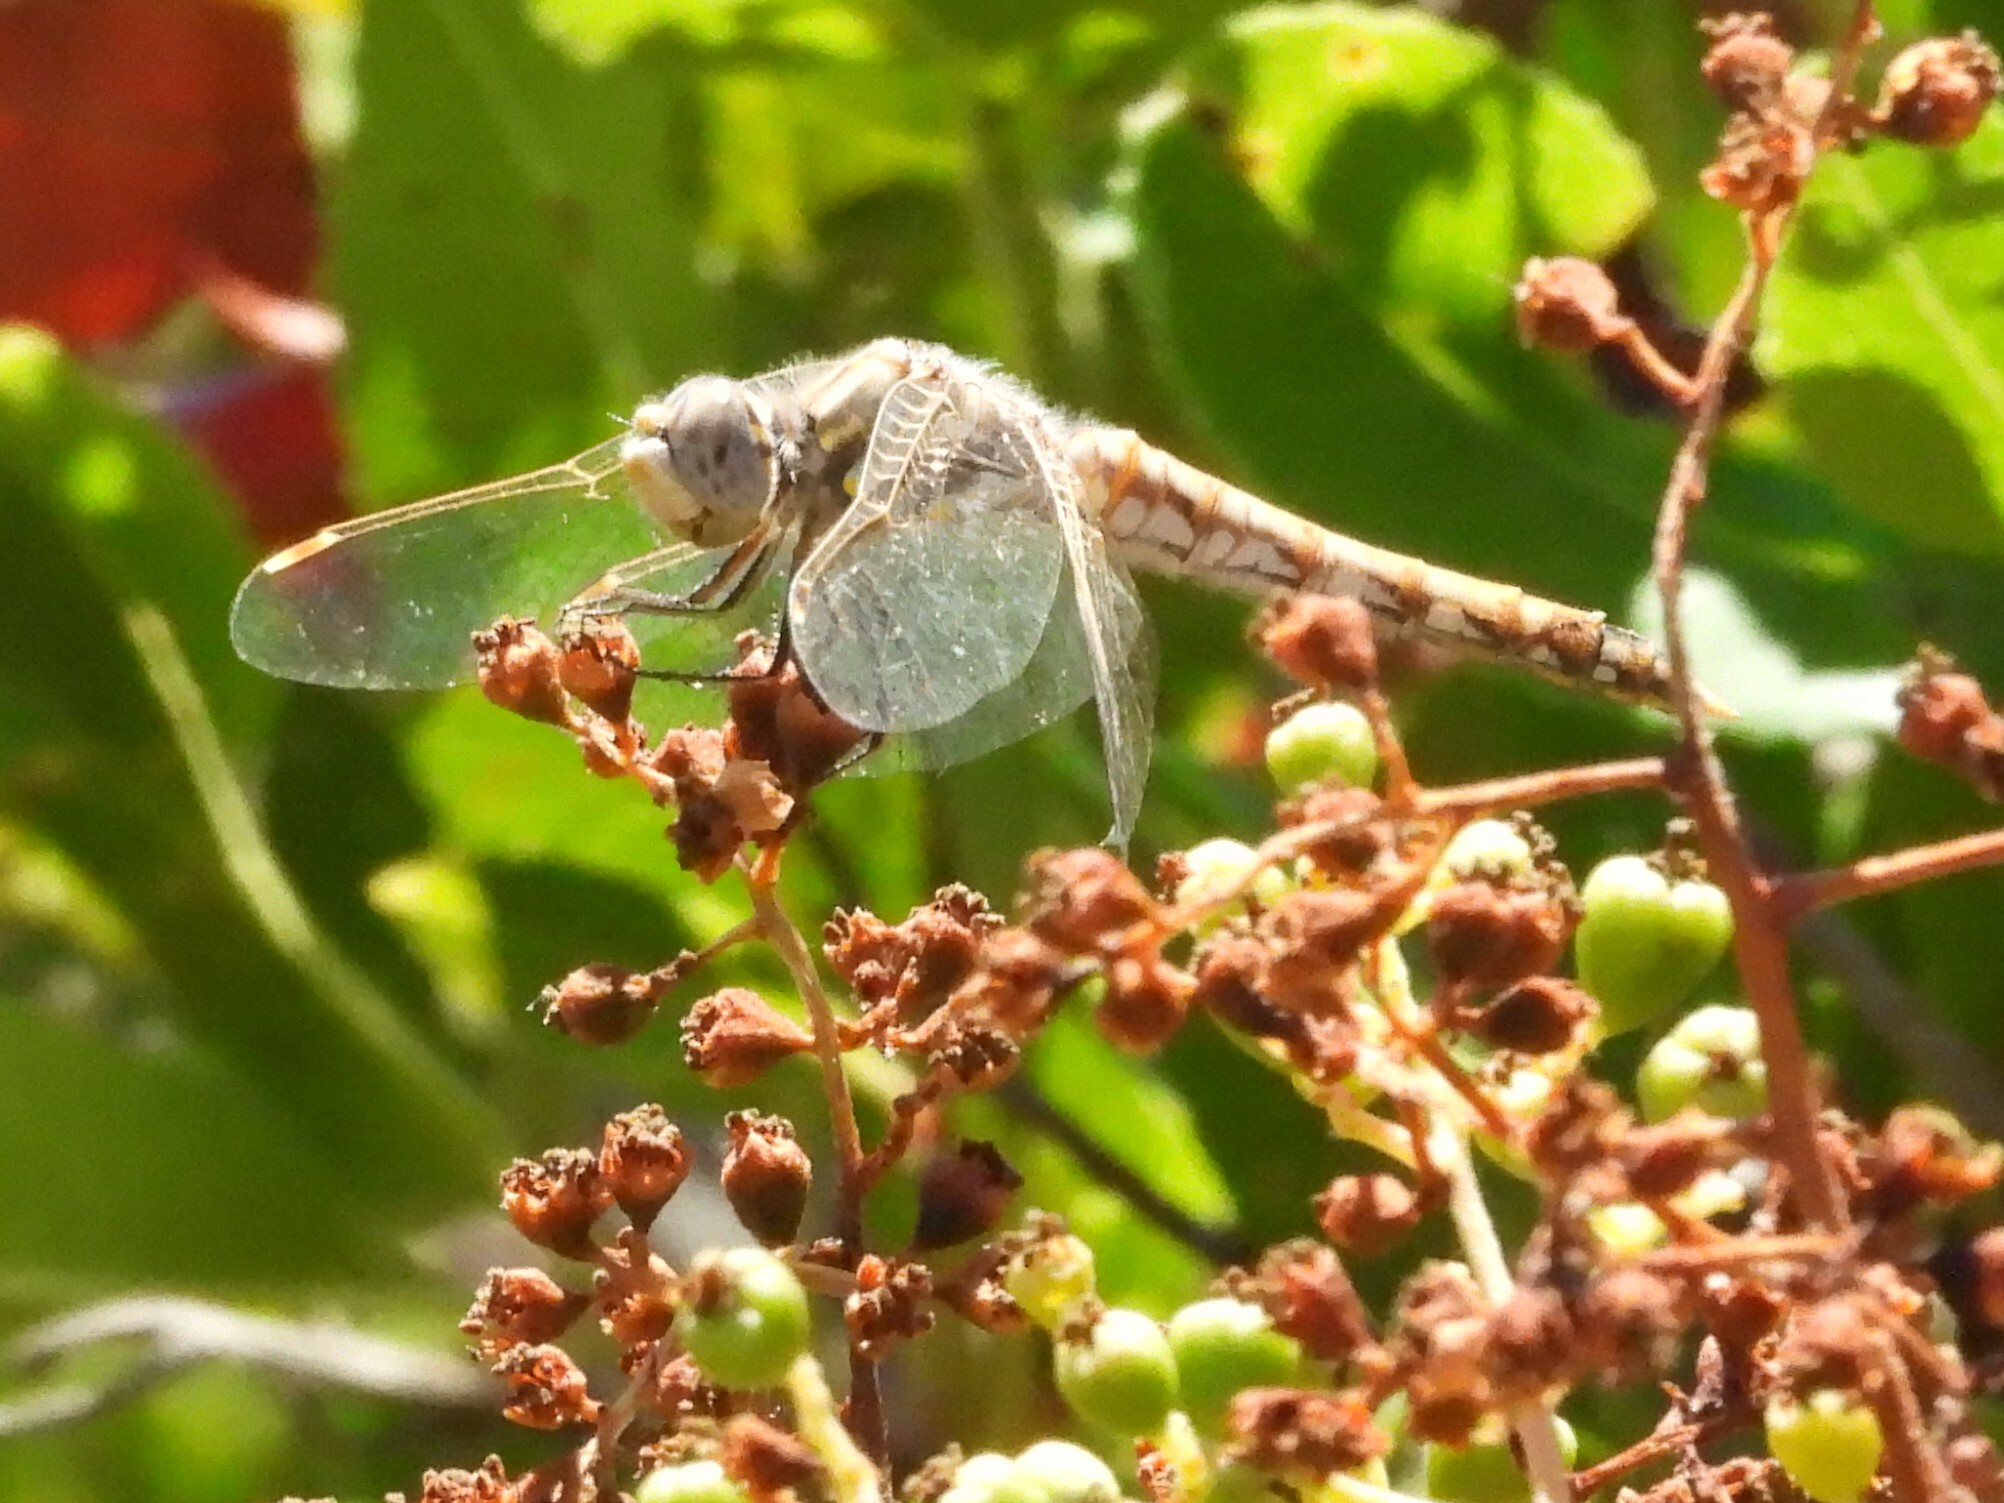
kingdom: Animalia
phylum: Arthropoda
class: Insecta
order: Odonata
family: Libellulidae
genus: Sympetrum
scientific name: Sympetrum corruptum
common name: Variegated meadowhawk
